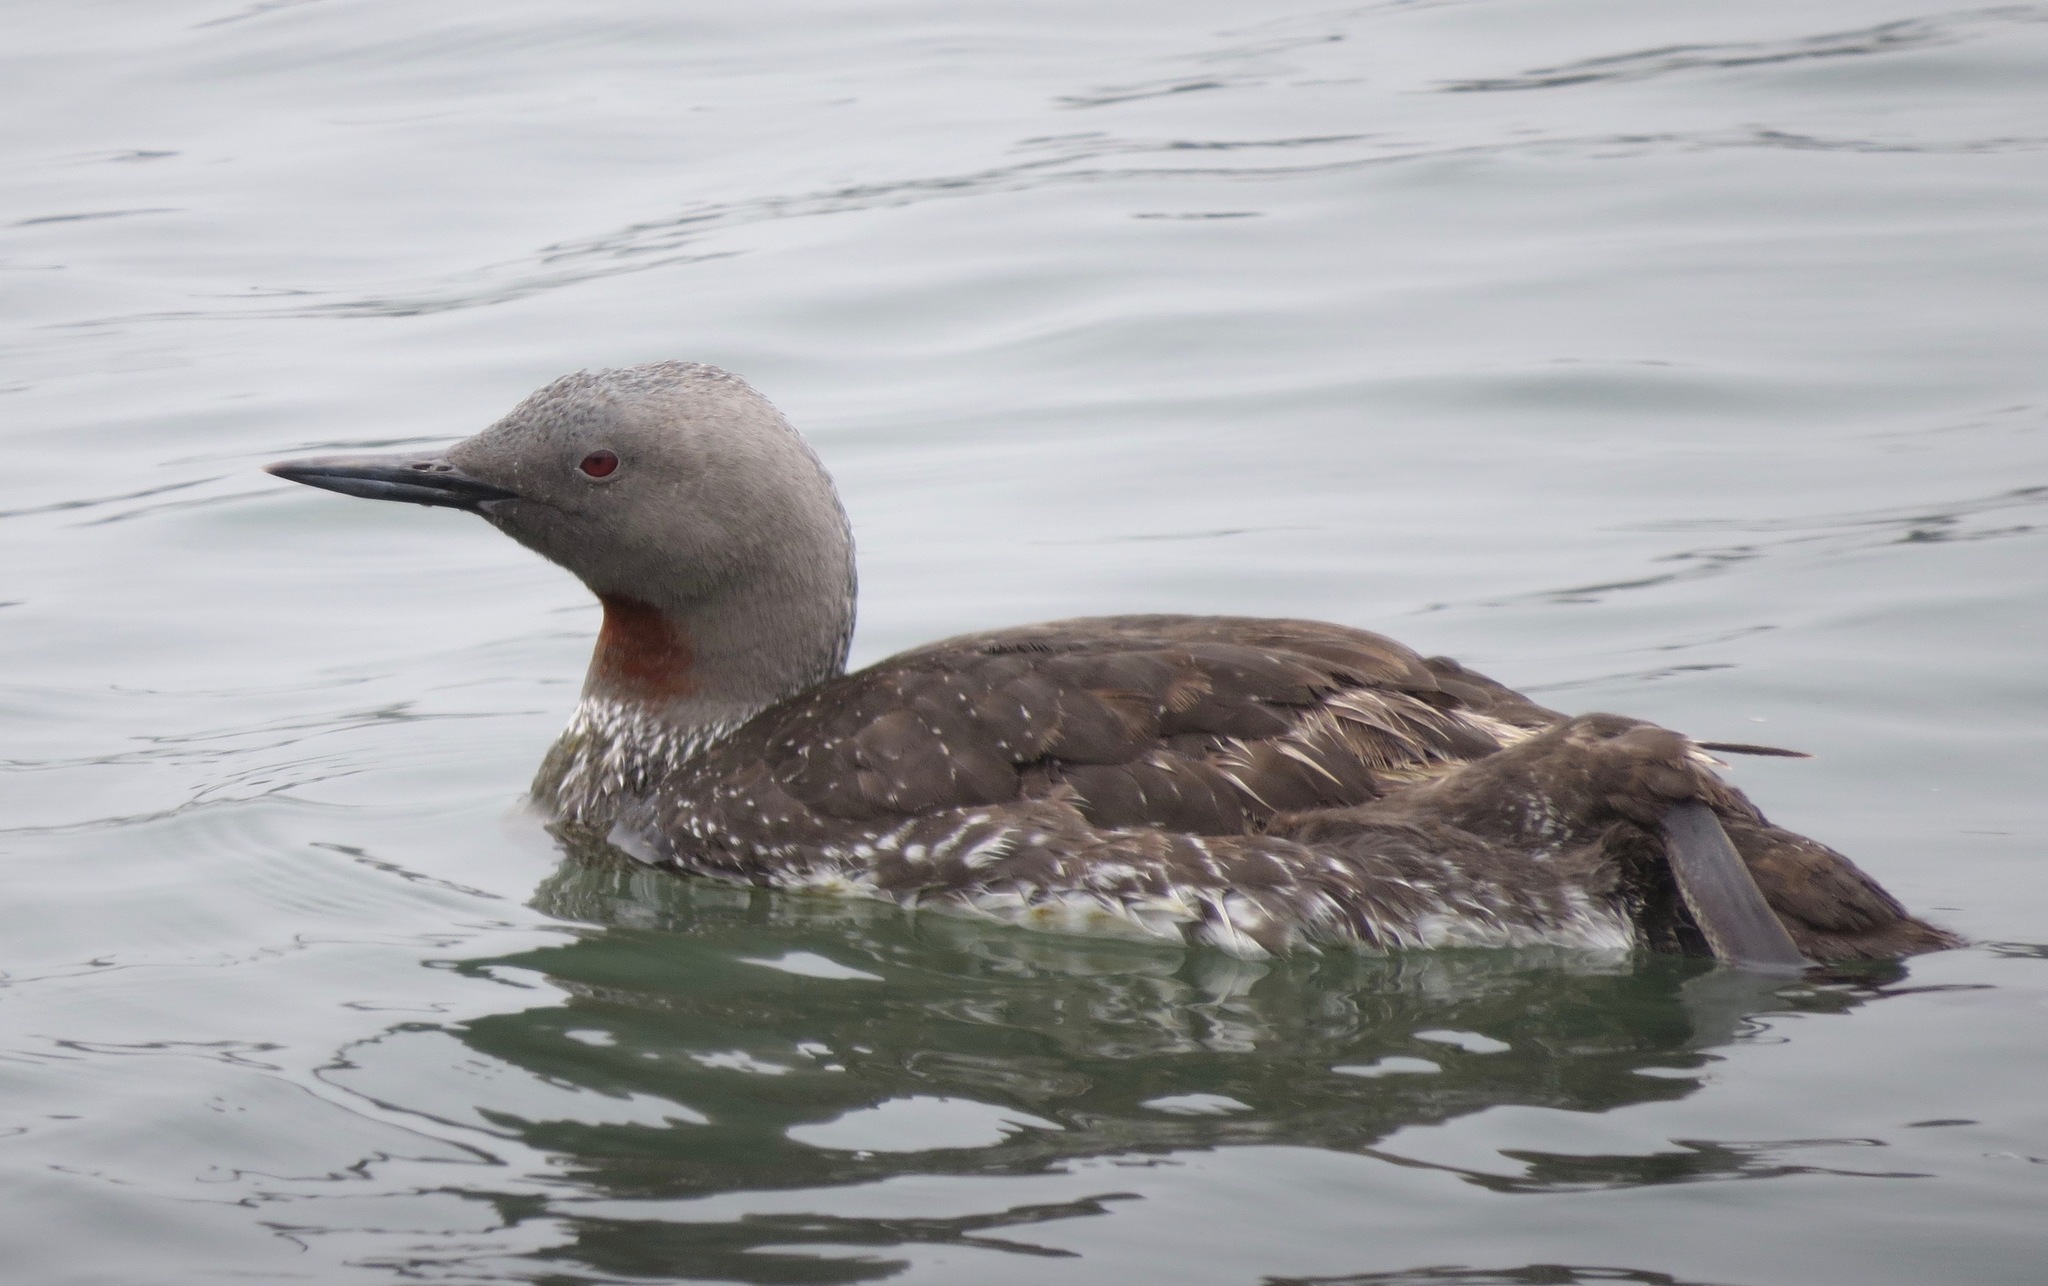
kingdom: Animalia
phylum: Chordata
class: Aves
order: Gaviiformes
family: Gaviidae
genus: Gavia
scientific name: Gavia stellata
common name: Red-throated loon
